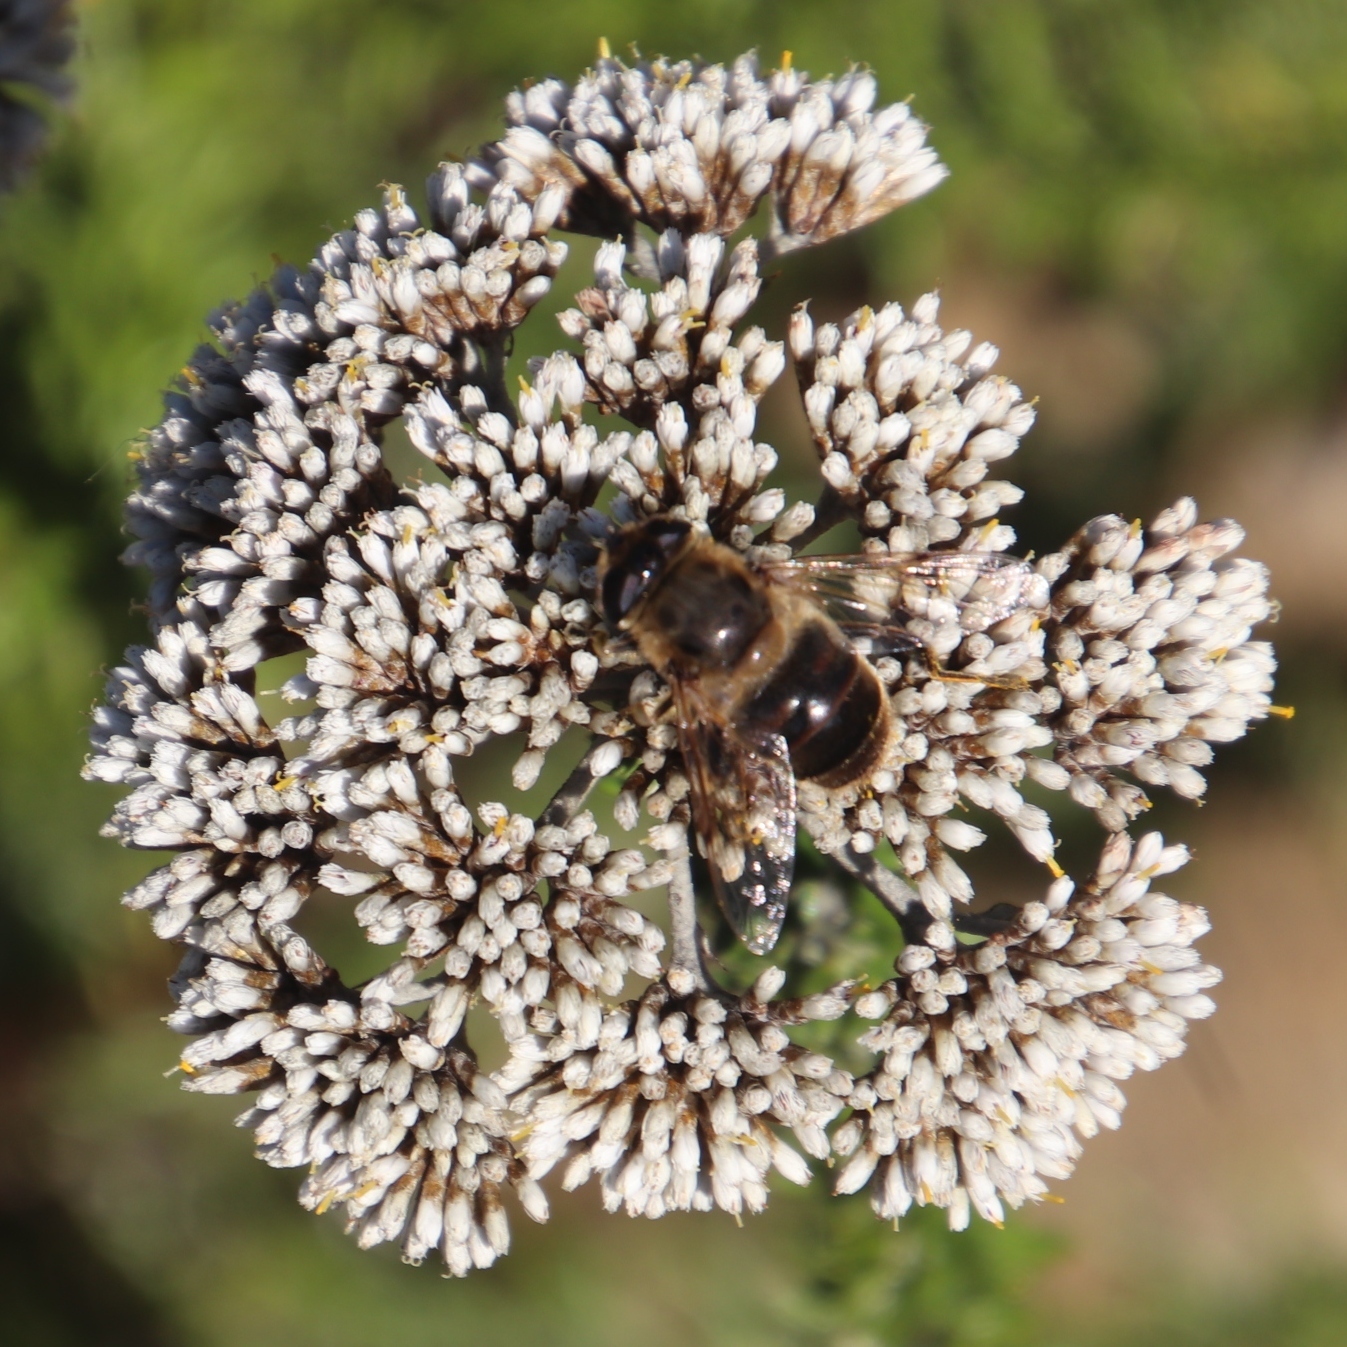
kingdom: Animalia
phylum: Arthropoda
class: Insecta
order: Diptera
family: Syrphidae
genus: Eristalis
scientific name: Eristalis tenax
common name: Drone fly
